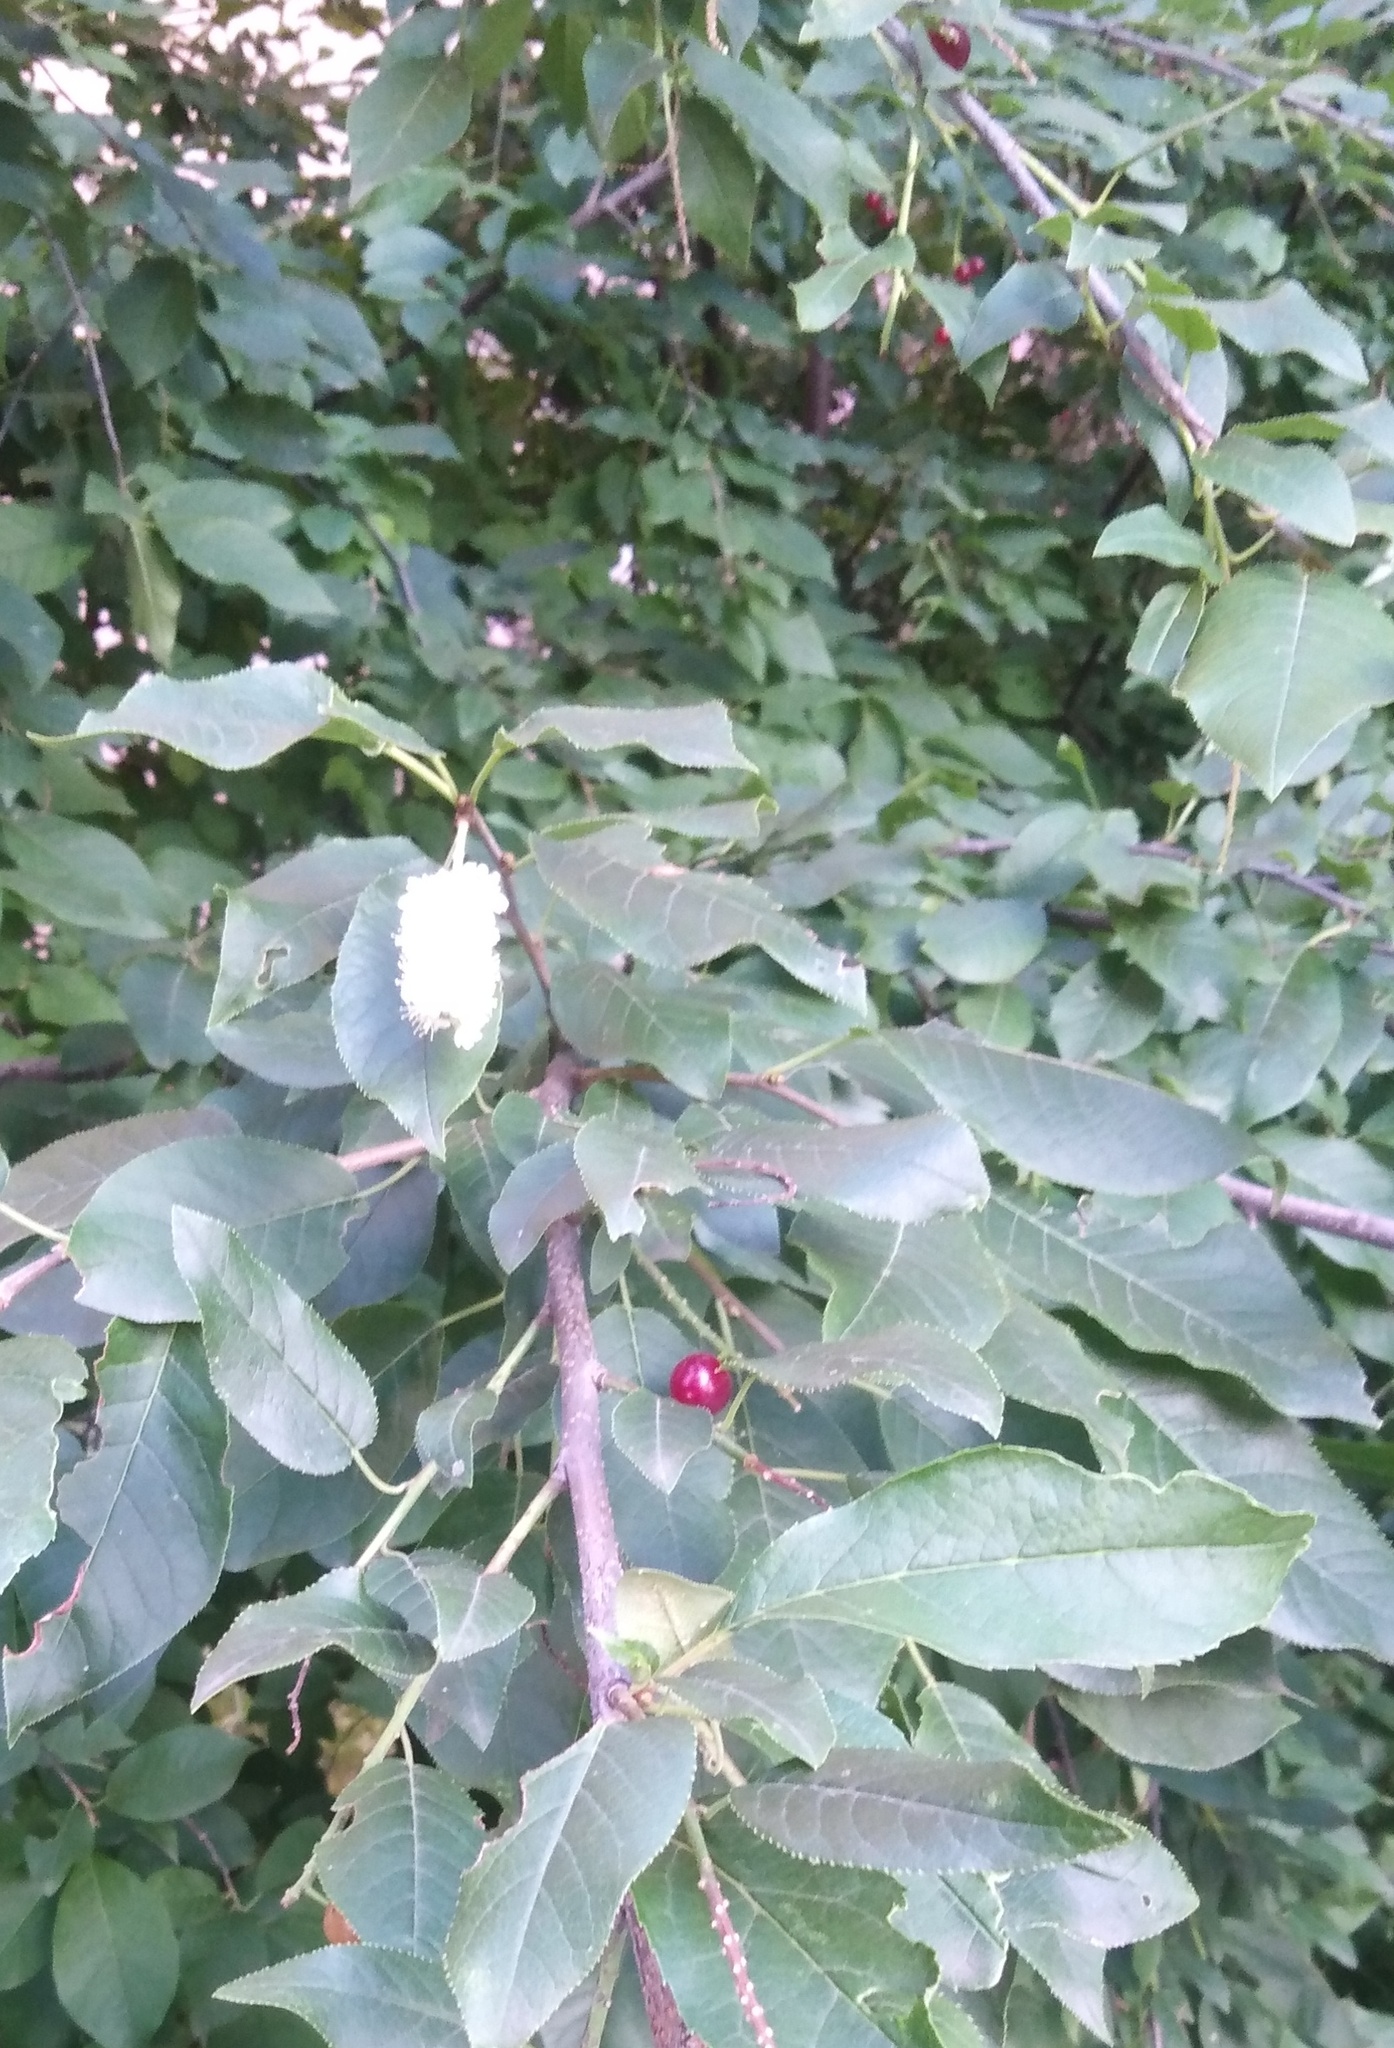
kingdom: Plantae
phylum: Tracheophyta
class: Magnoliopsida
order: Rosales
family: Rosaceae
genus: Prunus
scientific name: Prunus virginiana
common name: Chokecherry
